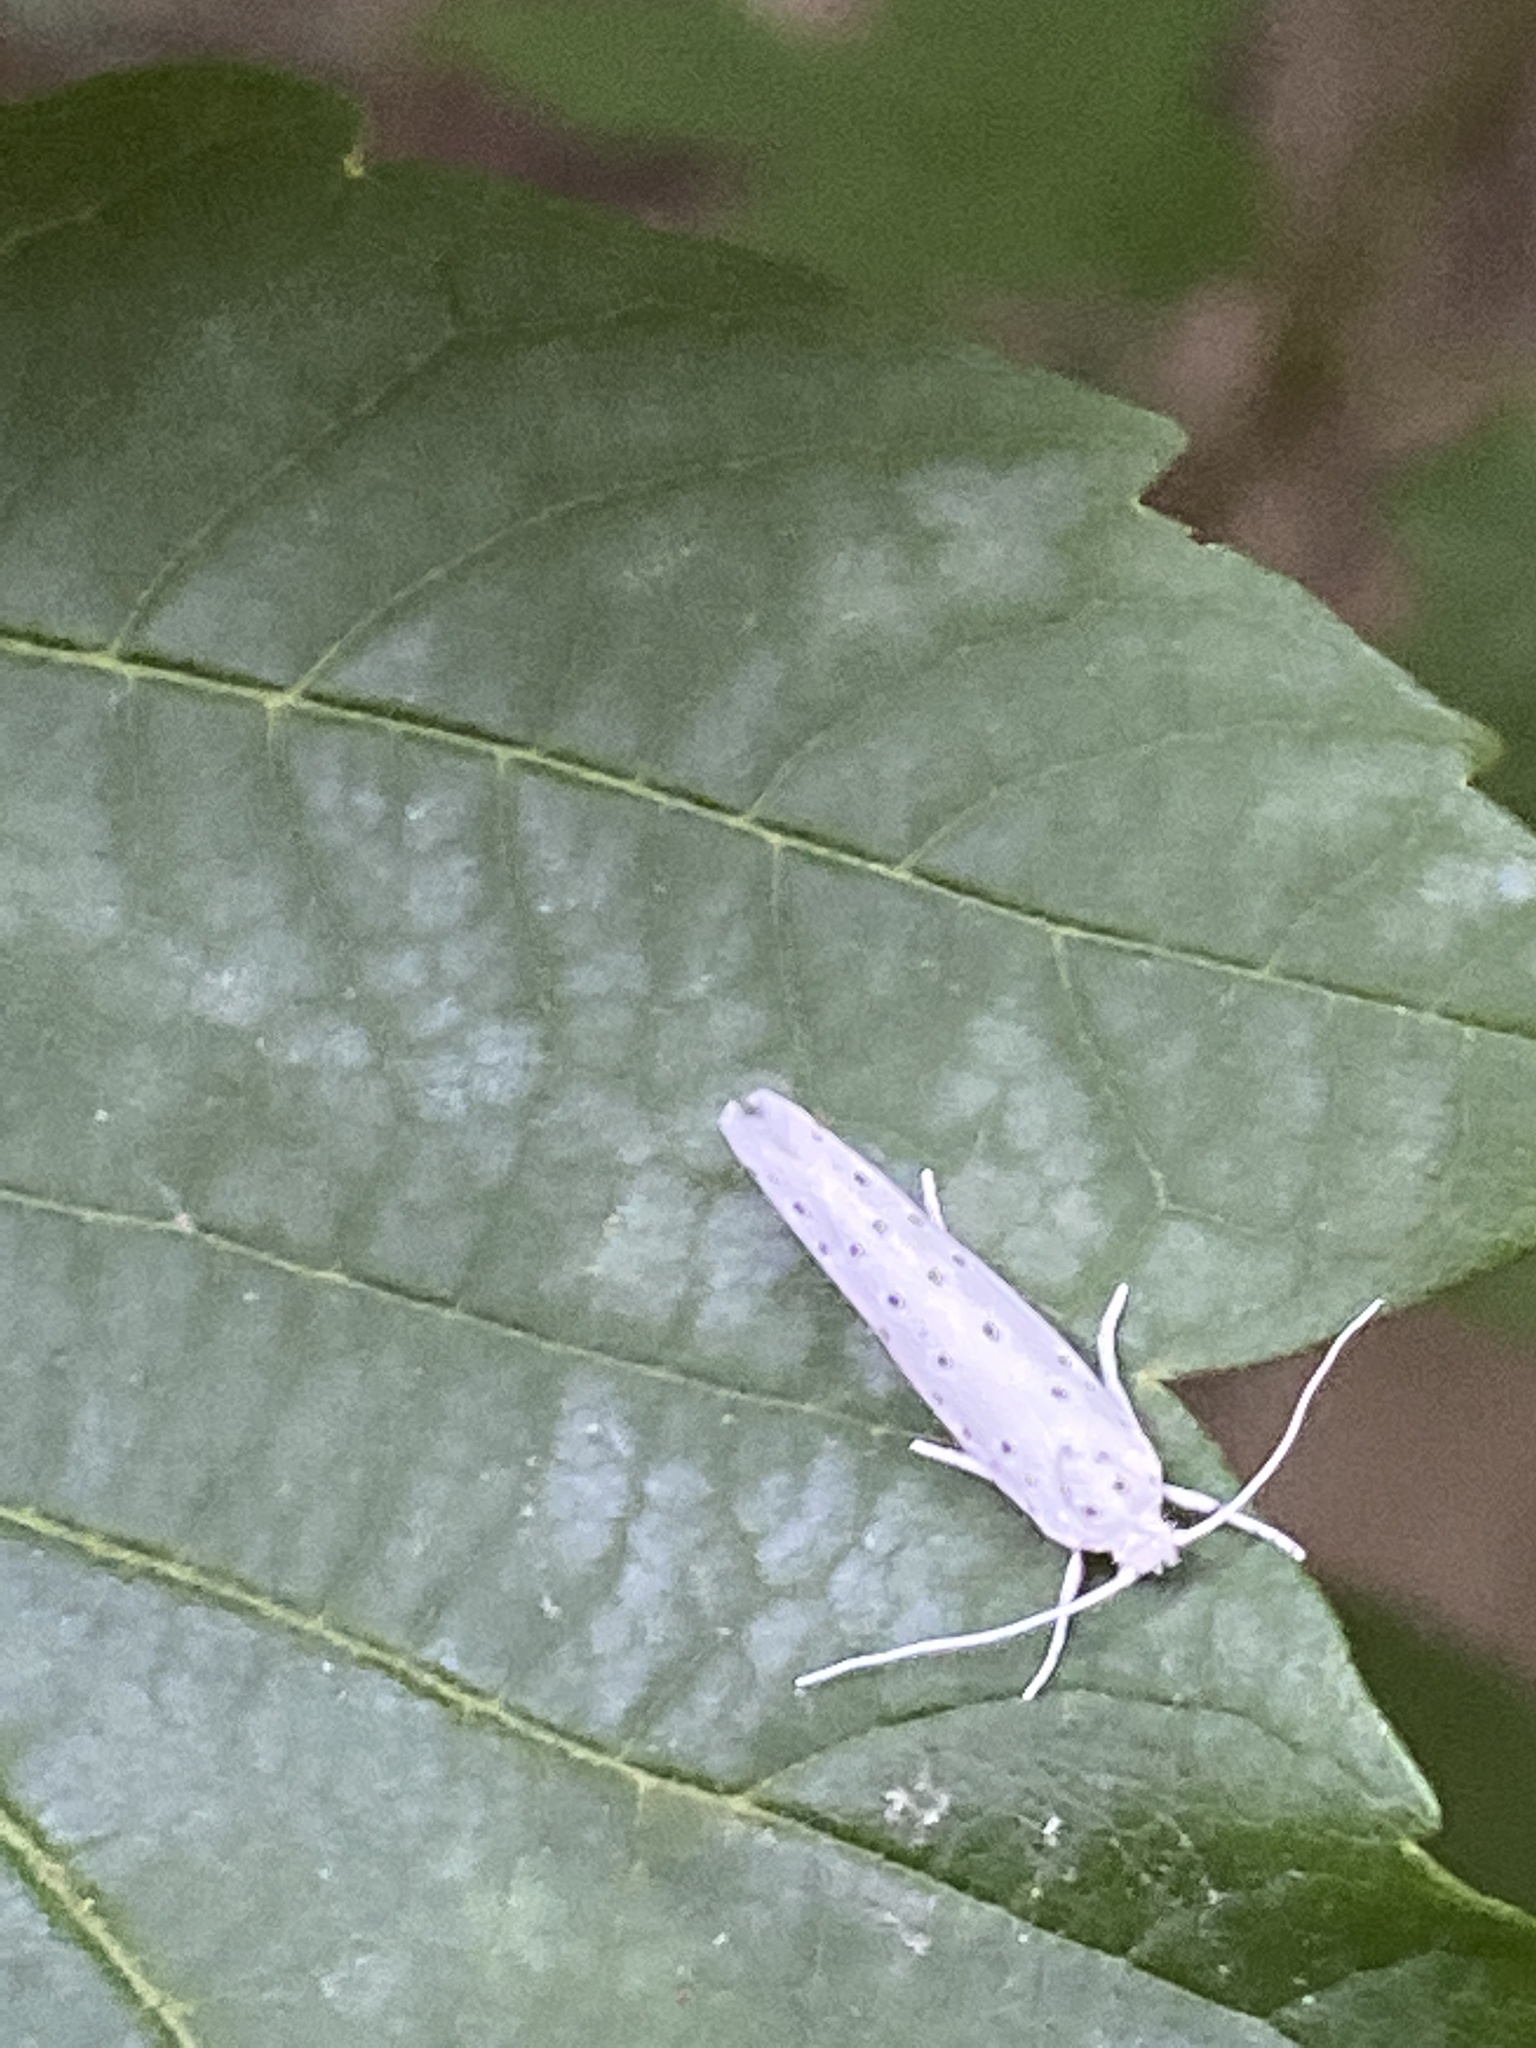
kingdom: Animalia
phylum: Arthropoda
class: Insecta
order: Lepidoptera
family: Yponomeutidae
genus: Yponomeuta
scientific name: Yponomeuta evonymella
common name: Bird-cherry ermine
